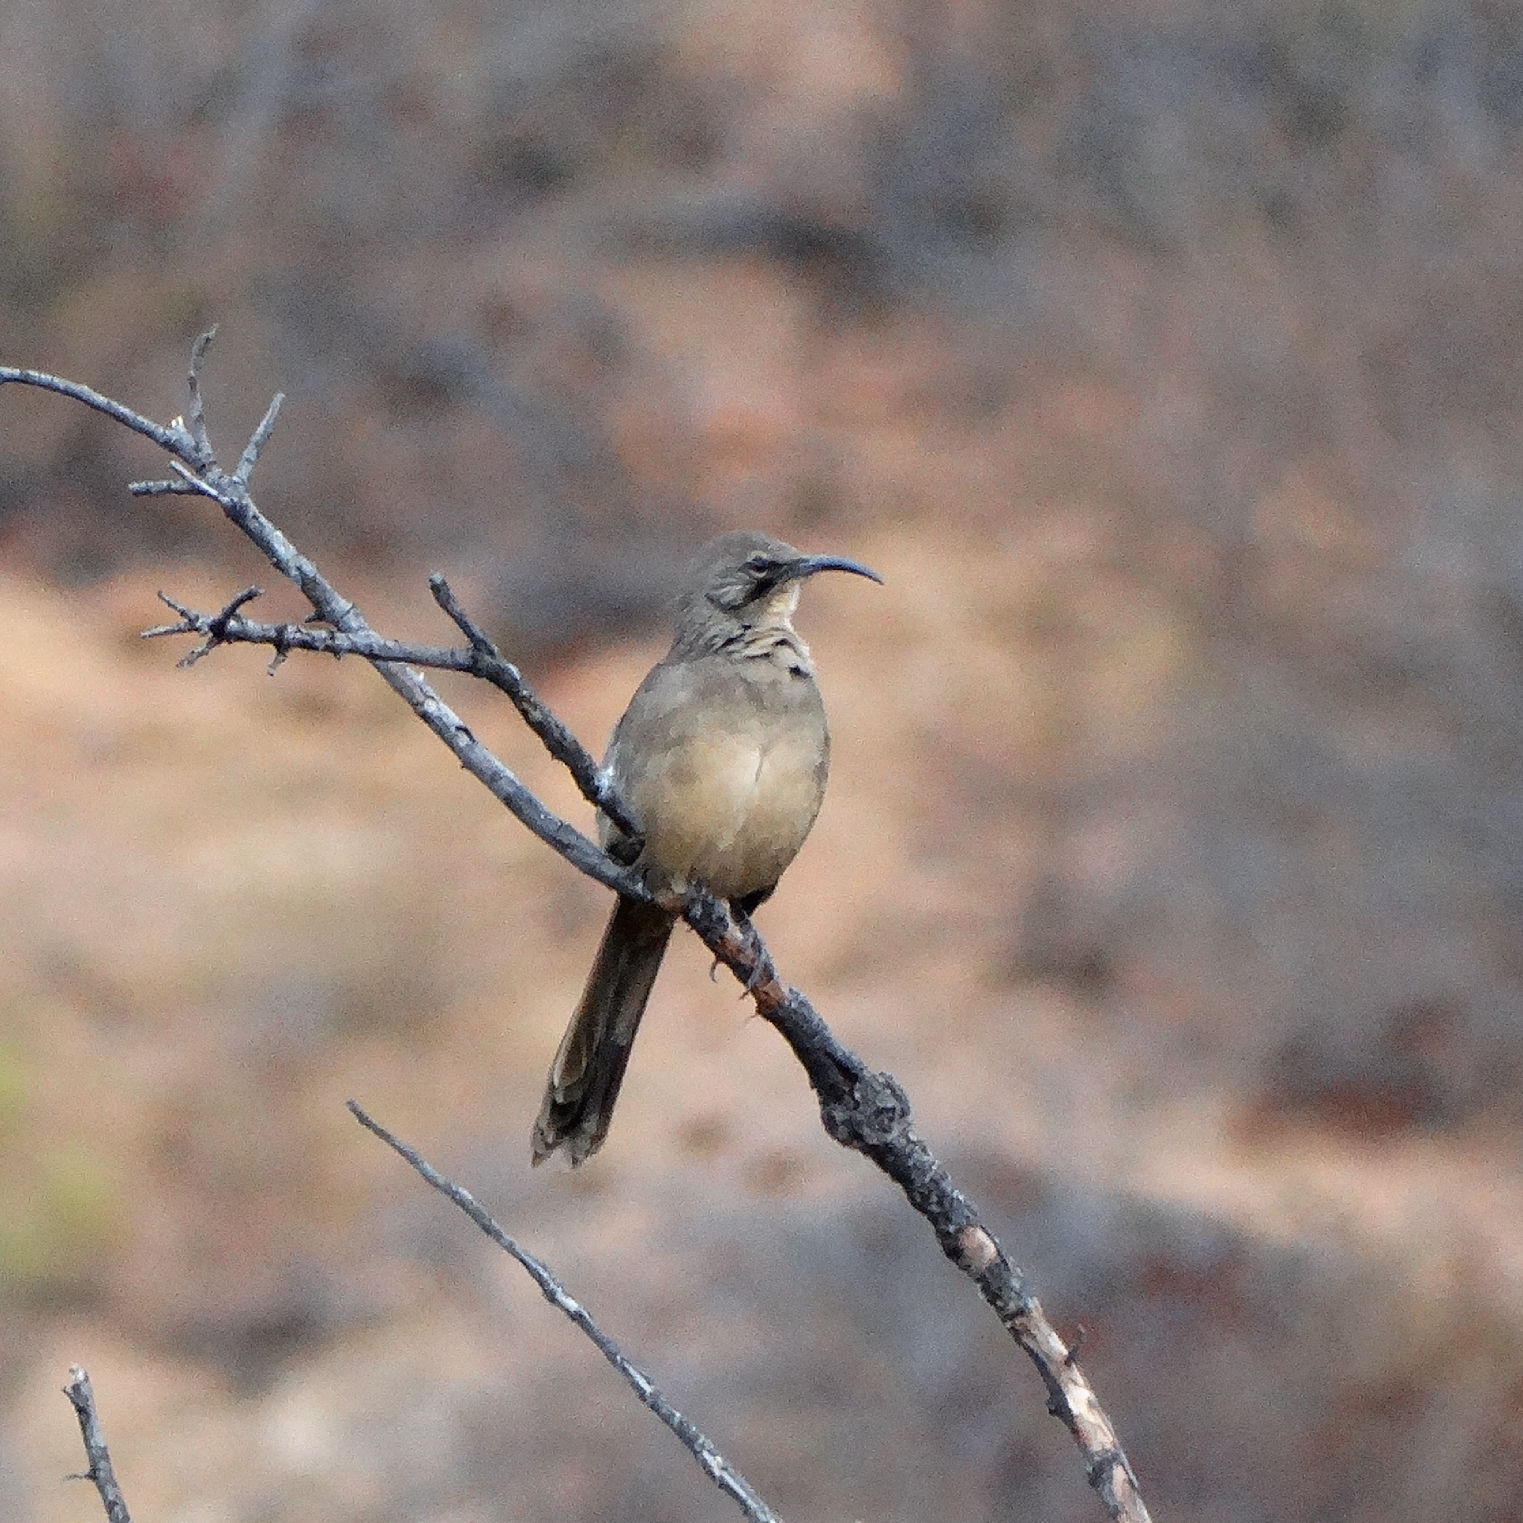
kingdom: Animalia
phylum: Chordata
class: Aves
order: Passeriformes
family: Mimidae
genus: Toxostoma
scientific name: Toxostoma redivivum
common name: California thrasher
